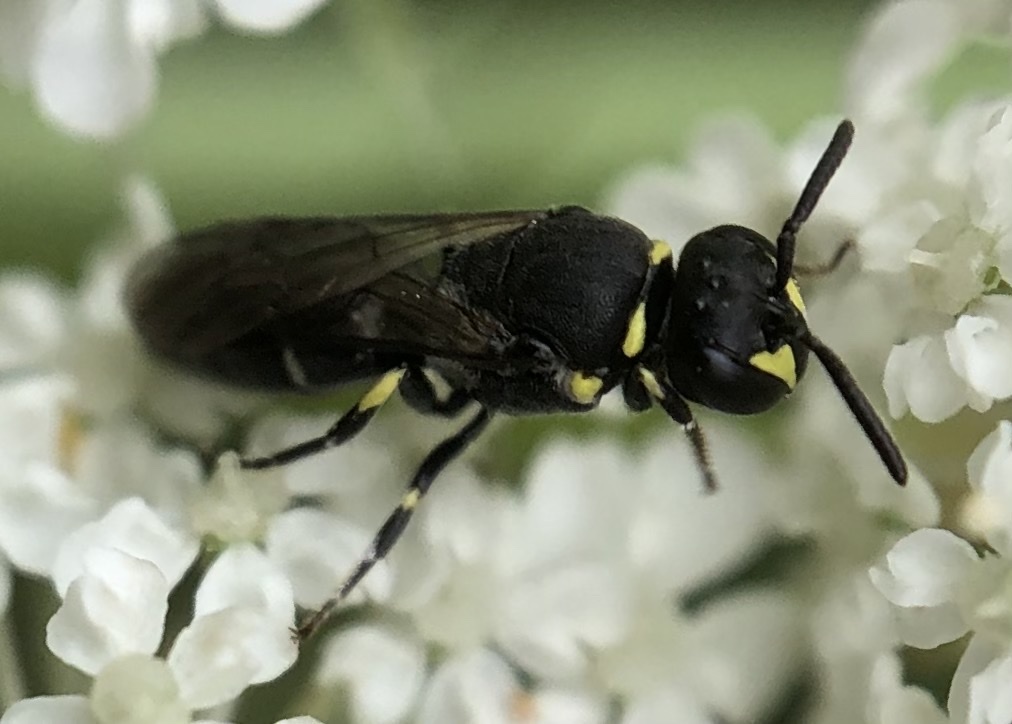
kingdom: Animalia
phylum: Arthropoda
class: Insecta
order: Hymenoptera
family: Colletidae
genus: Hylaeus
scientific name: Hylaeus modestus
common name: Yellow-faced bee
